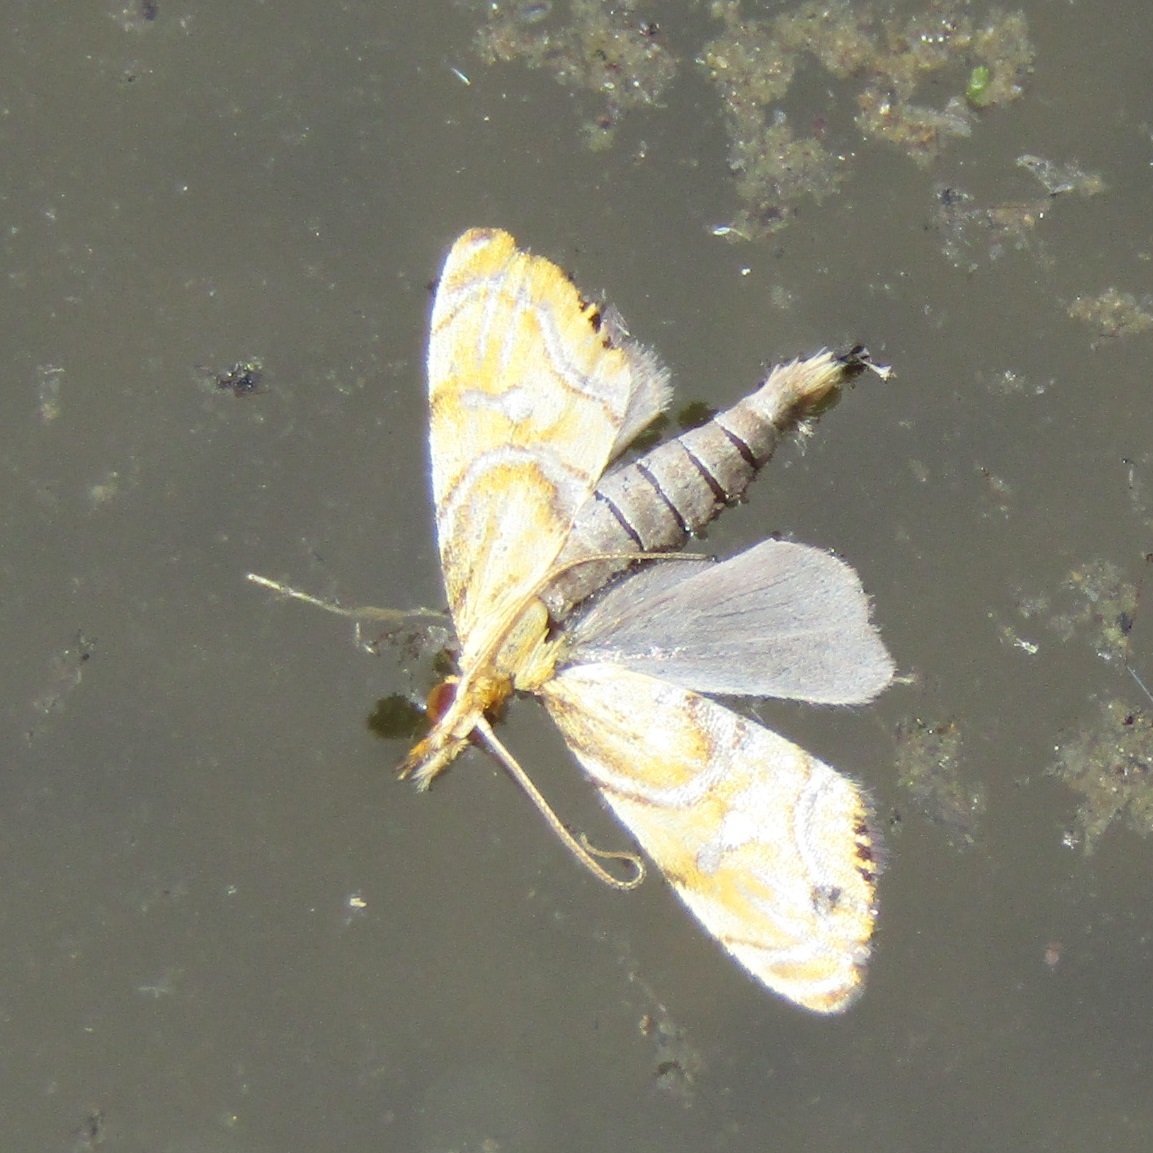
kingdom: Animalia
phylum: Arthropoda
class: Insecta
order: Lepidoptera
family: Crambidae
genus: Glaucocharis
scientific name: Glaucocharis auriscriptella
